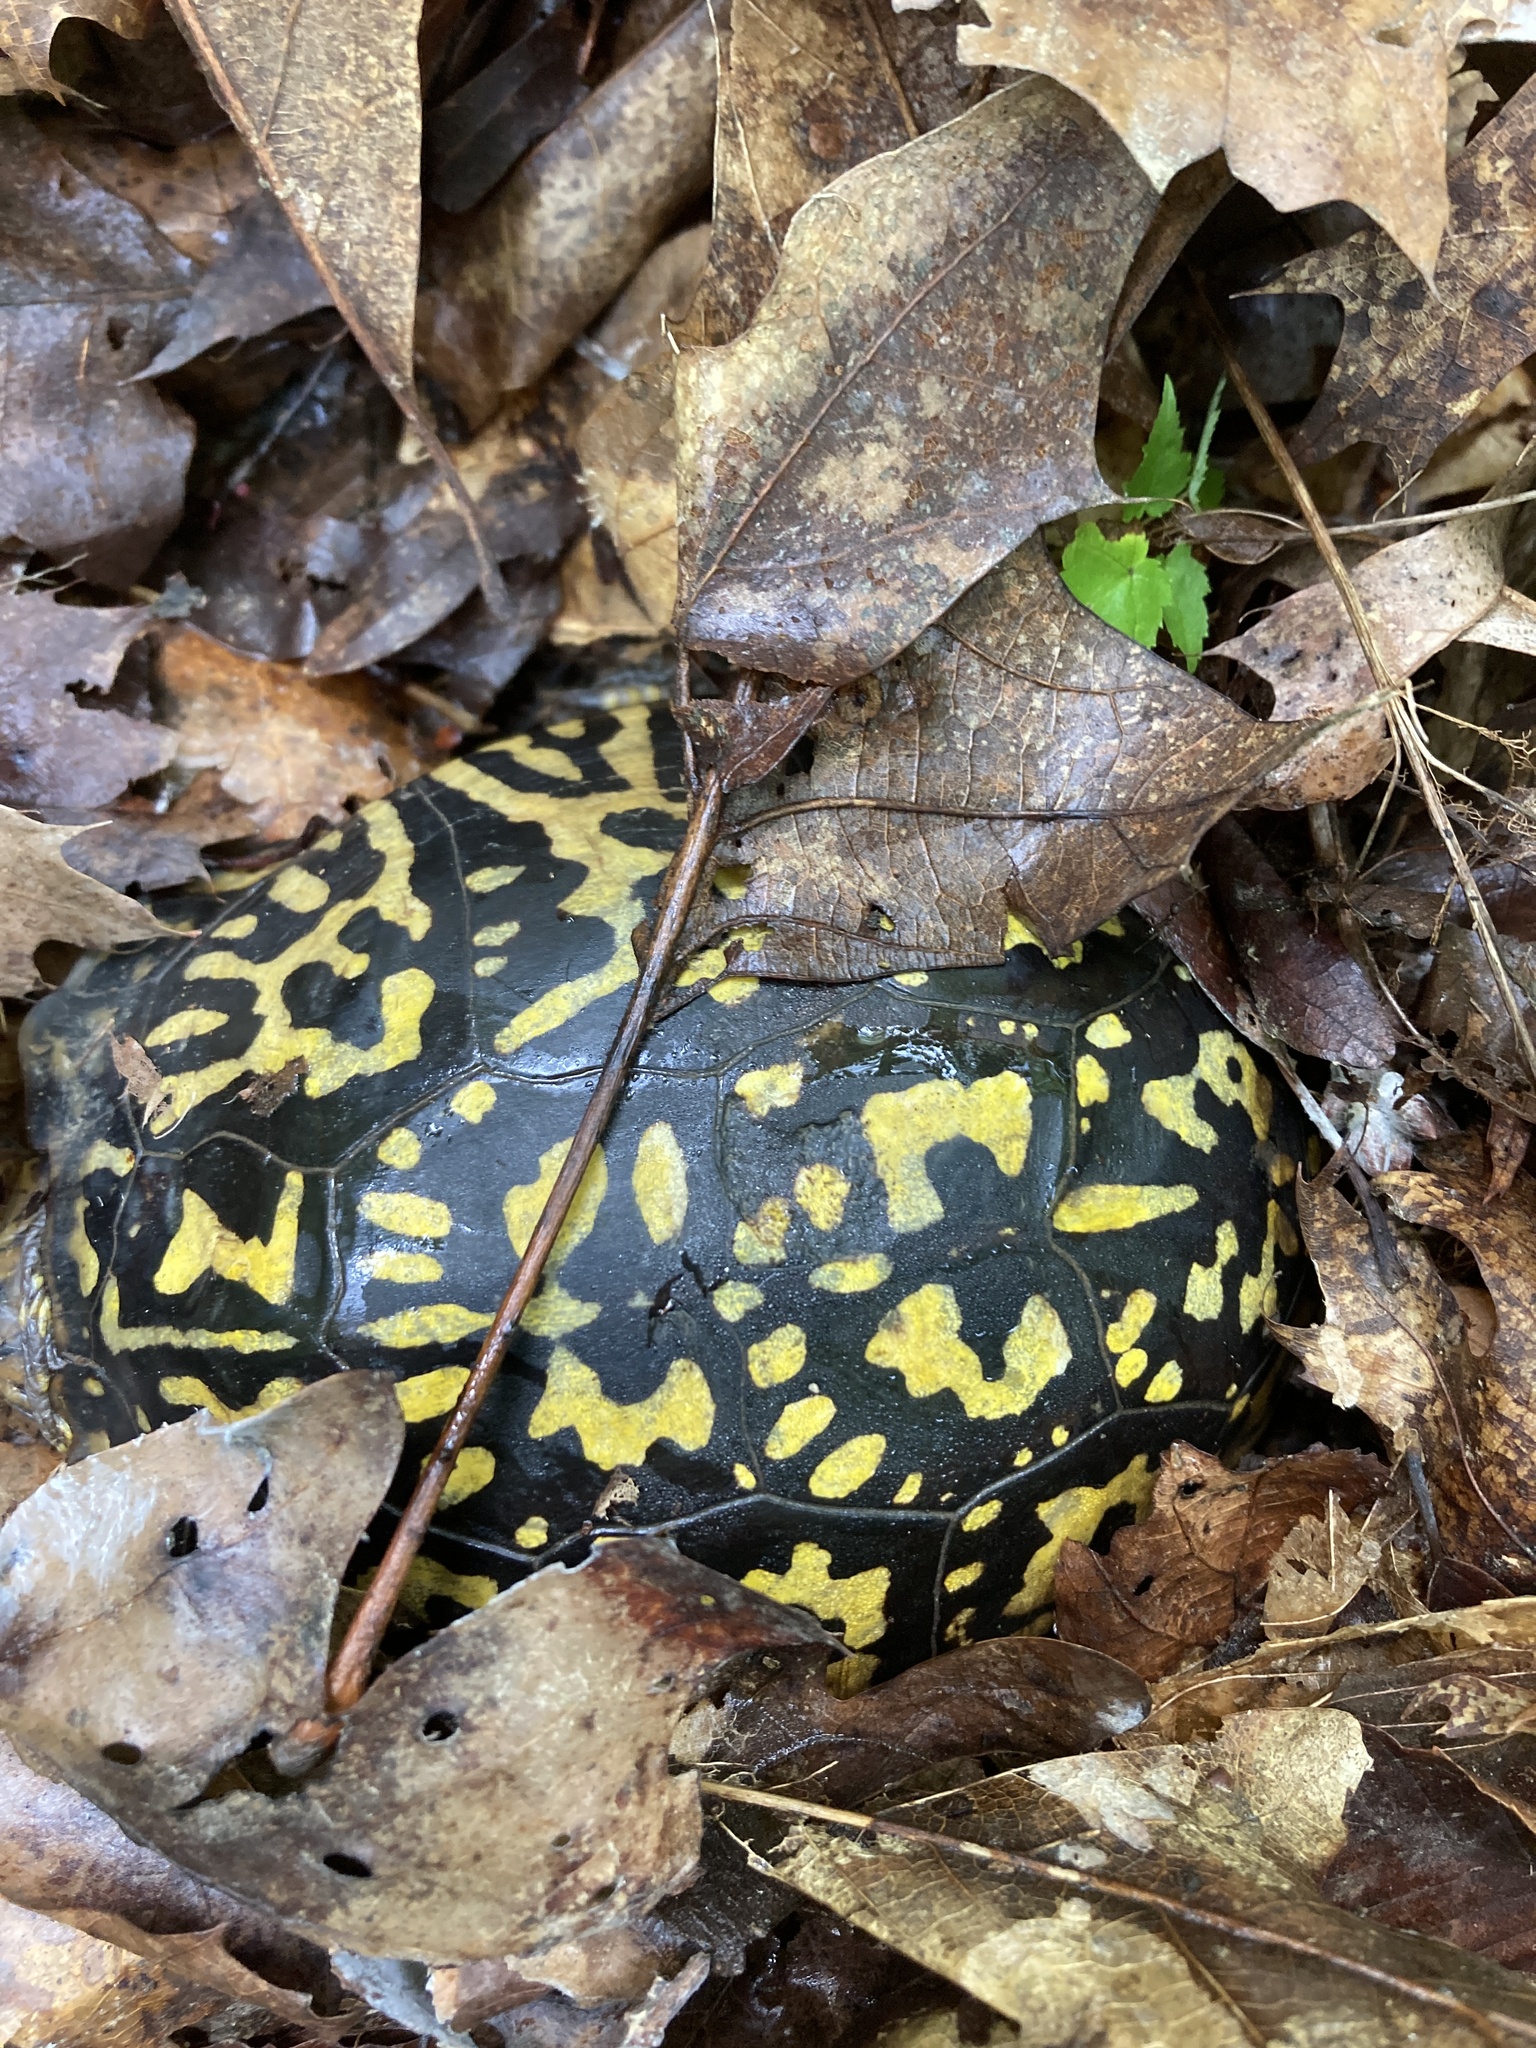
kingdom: Animalia
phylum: Chordata
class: Testudines
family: Emydidae
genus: Terrapene
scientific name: Terrapene carolina
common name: Common box turtle
